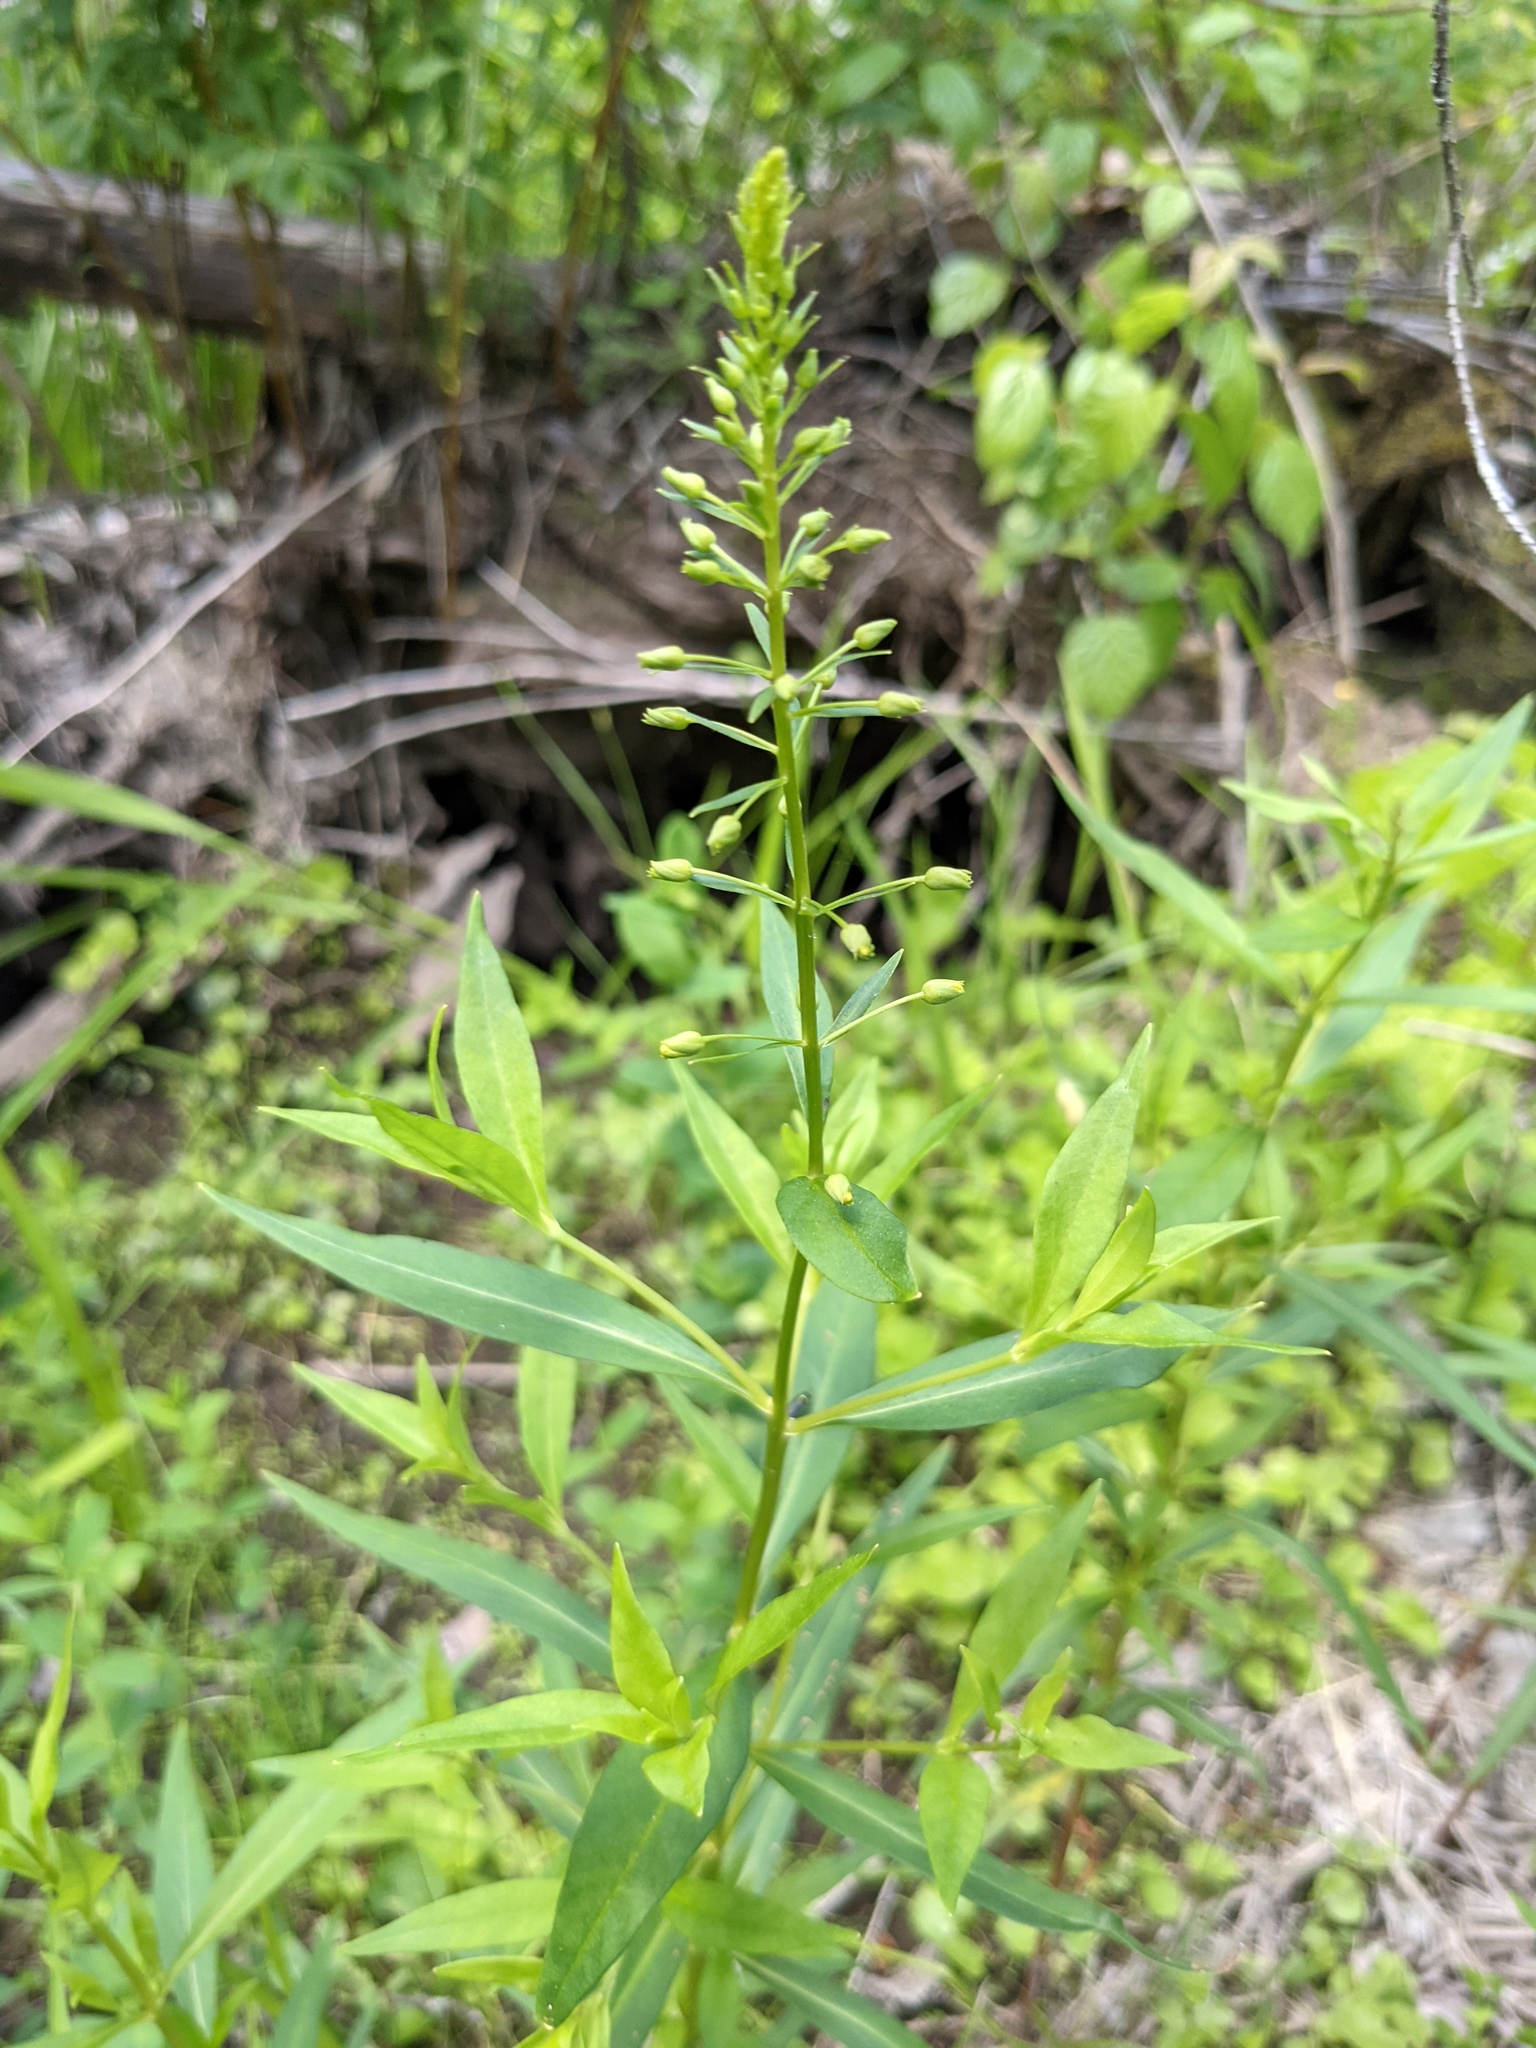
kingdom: Plantae
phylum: Tracheophyta
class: Magnoliopsida
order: Ericales
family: Primulaceae
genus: Lysimachia
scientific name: Lysimachia terrestris
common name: Lake loosestrife
